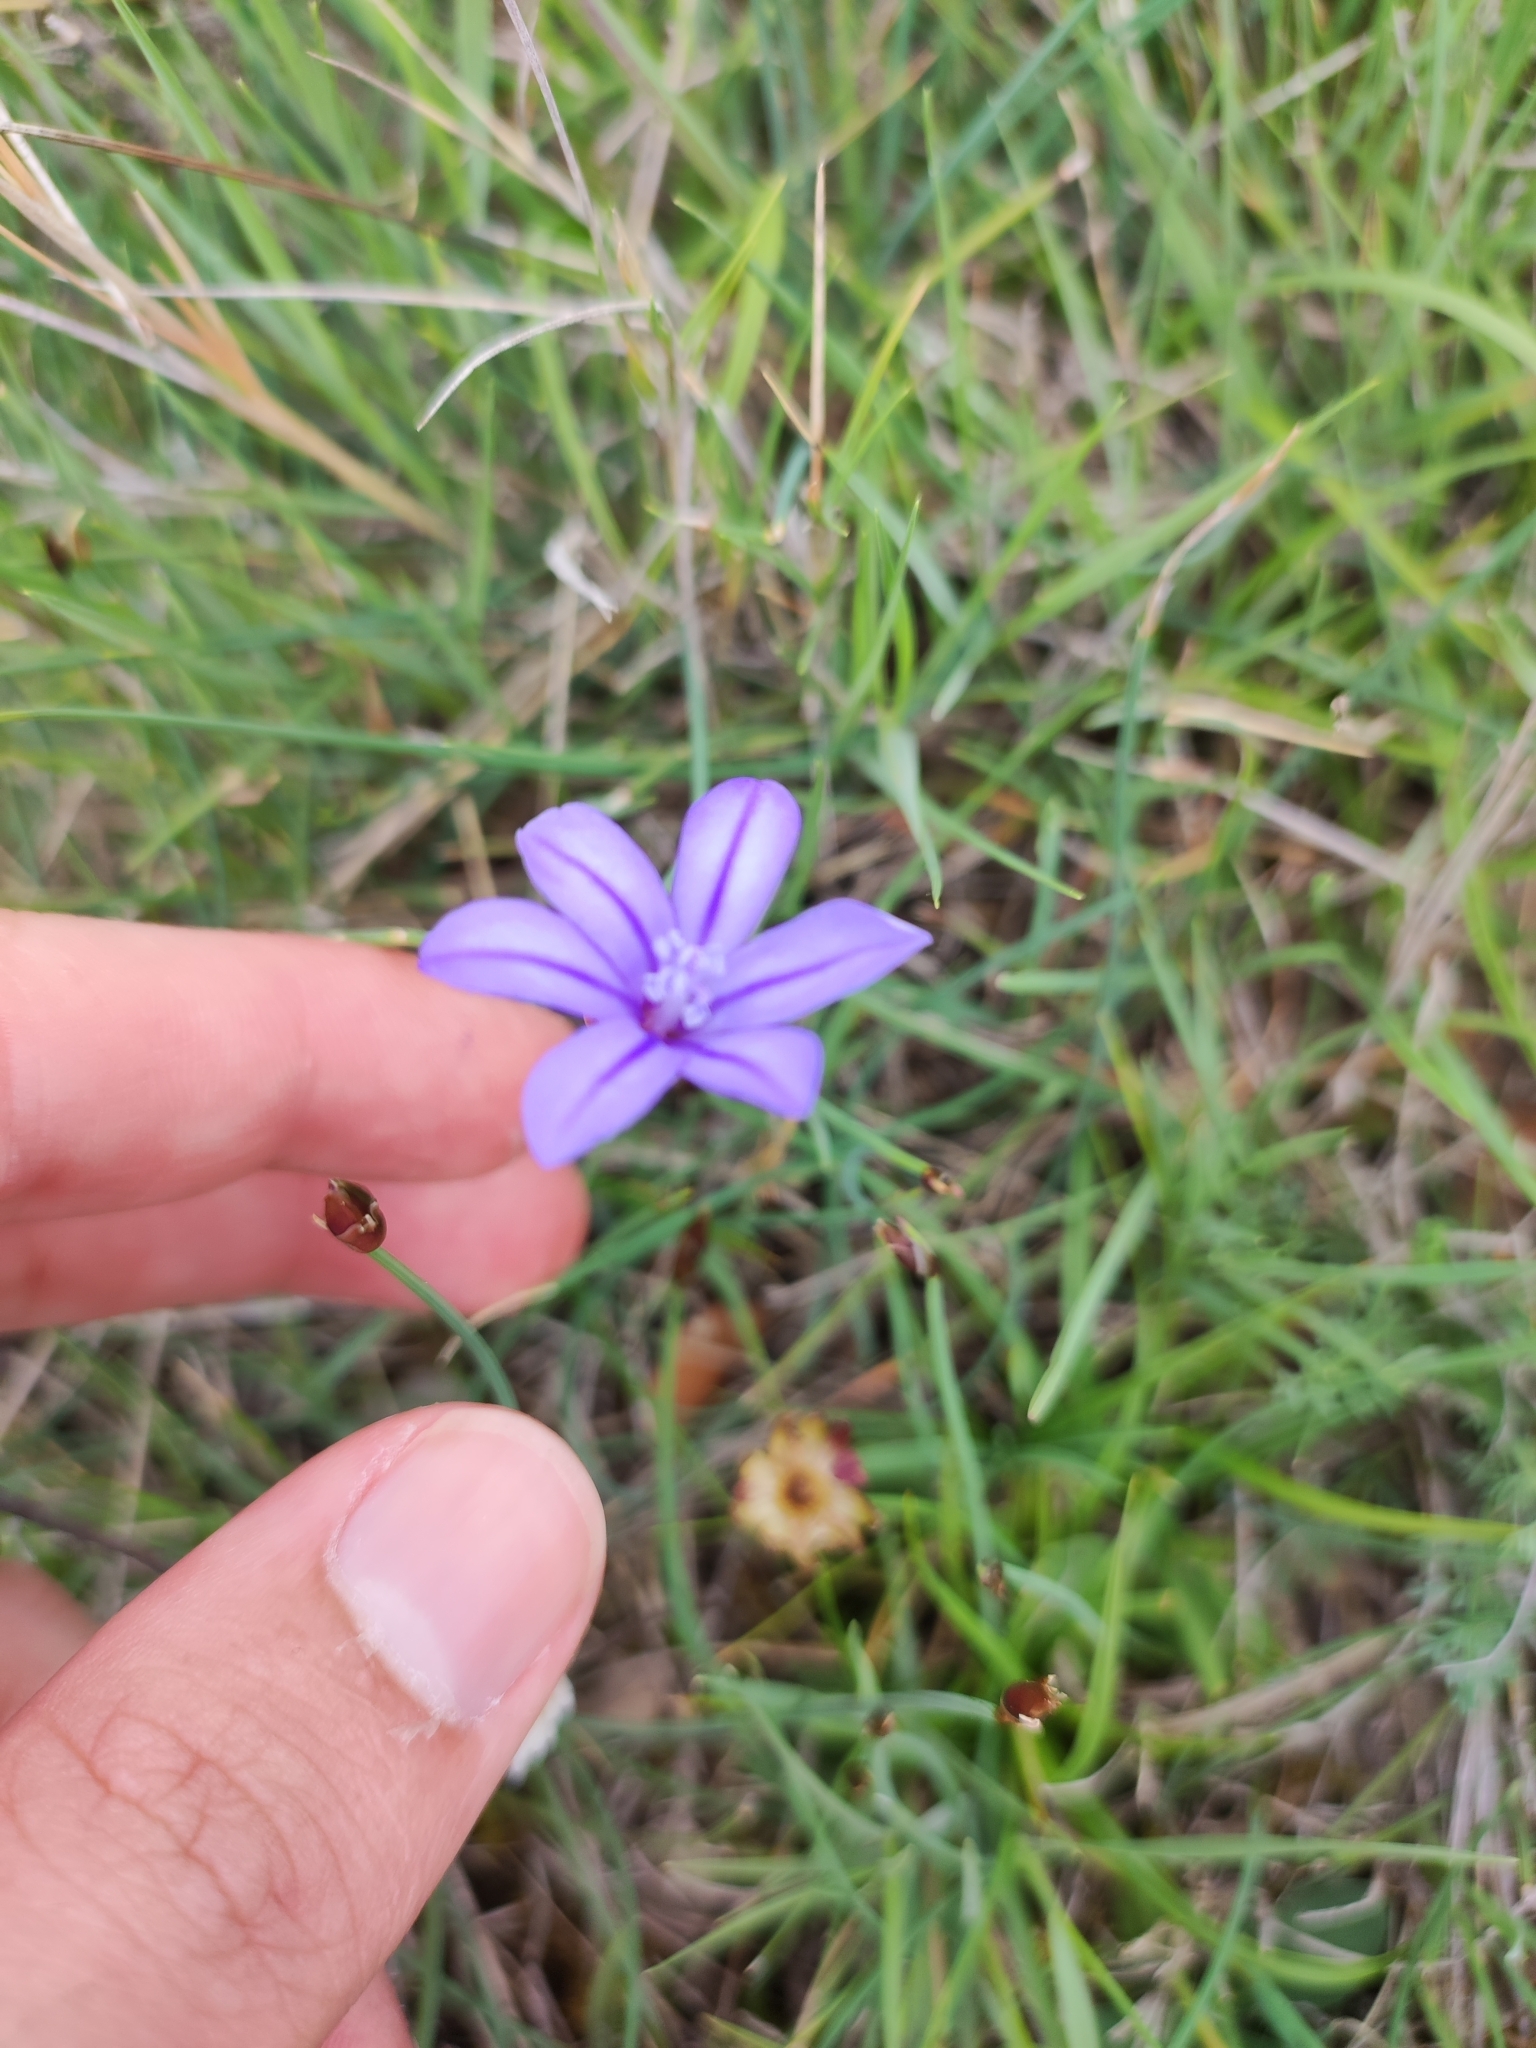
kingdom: Plantae
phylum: Tracheophyta
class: Liliopsida
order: Asparagales
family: Asparagaceae
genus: Aphyllanthes
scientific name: Aphyllanthes monspeliensis
